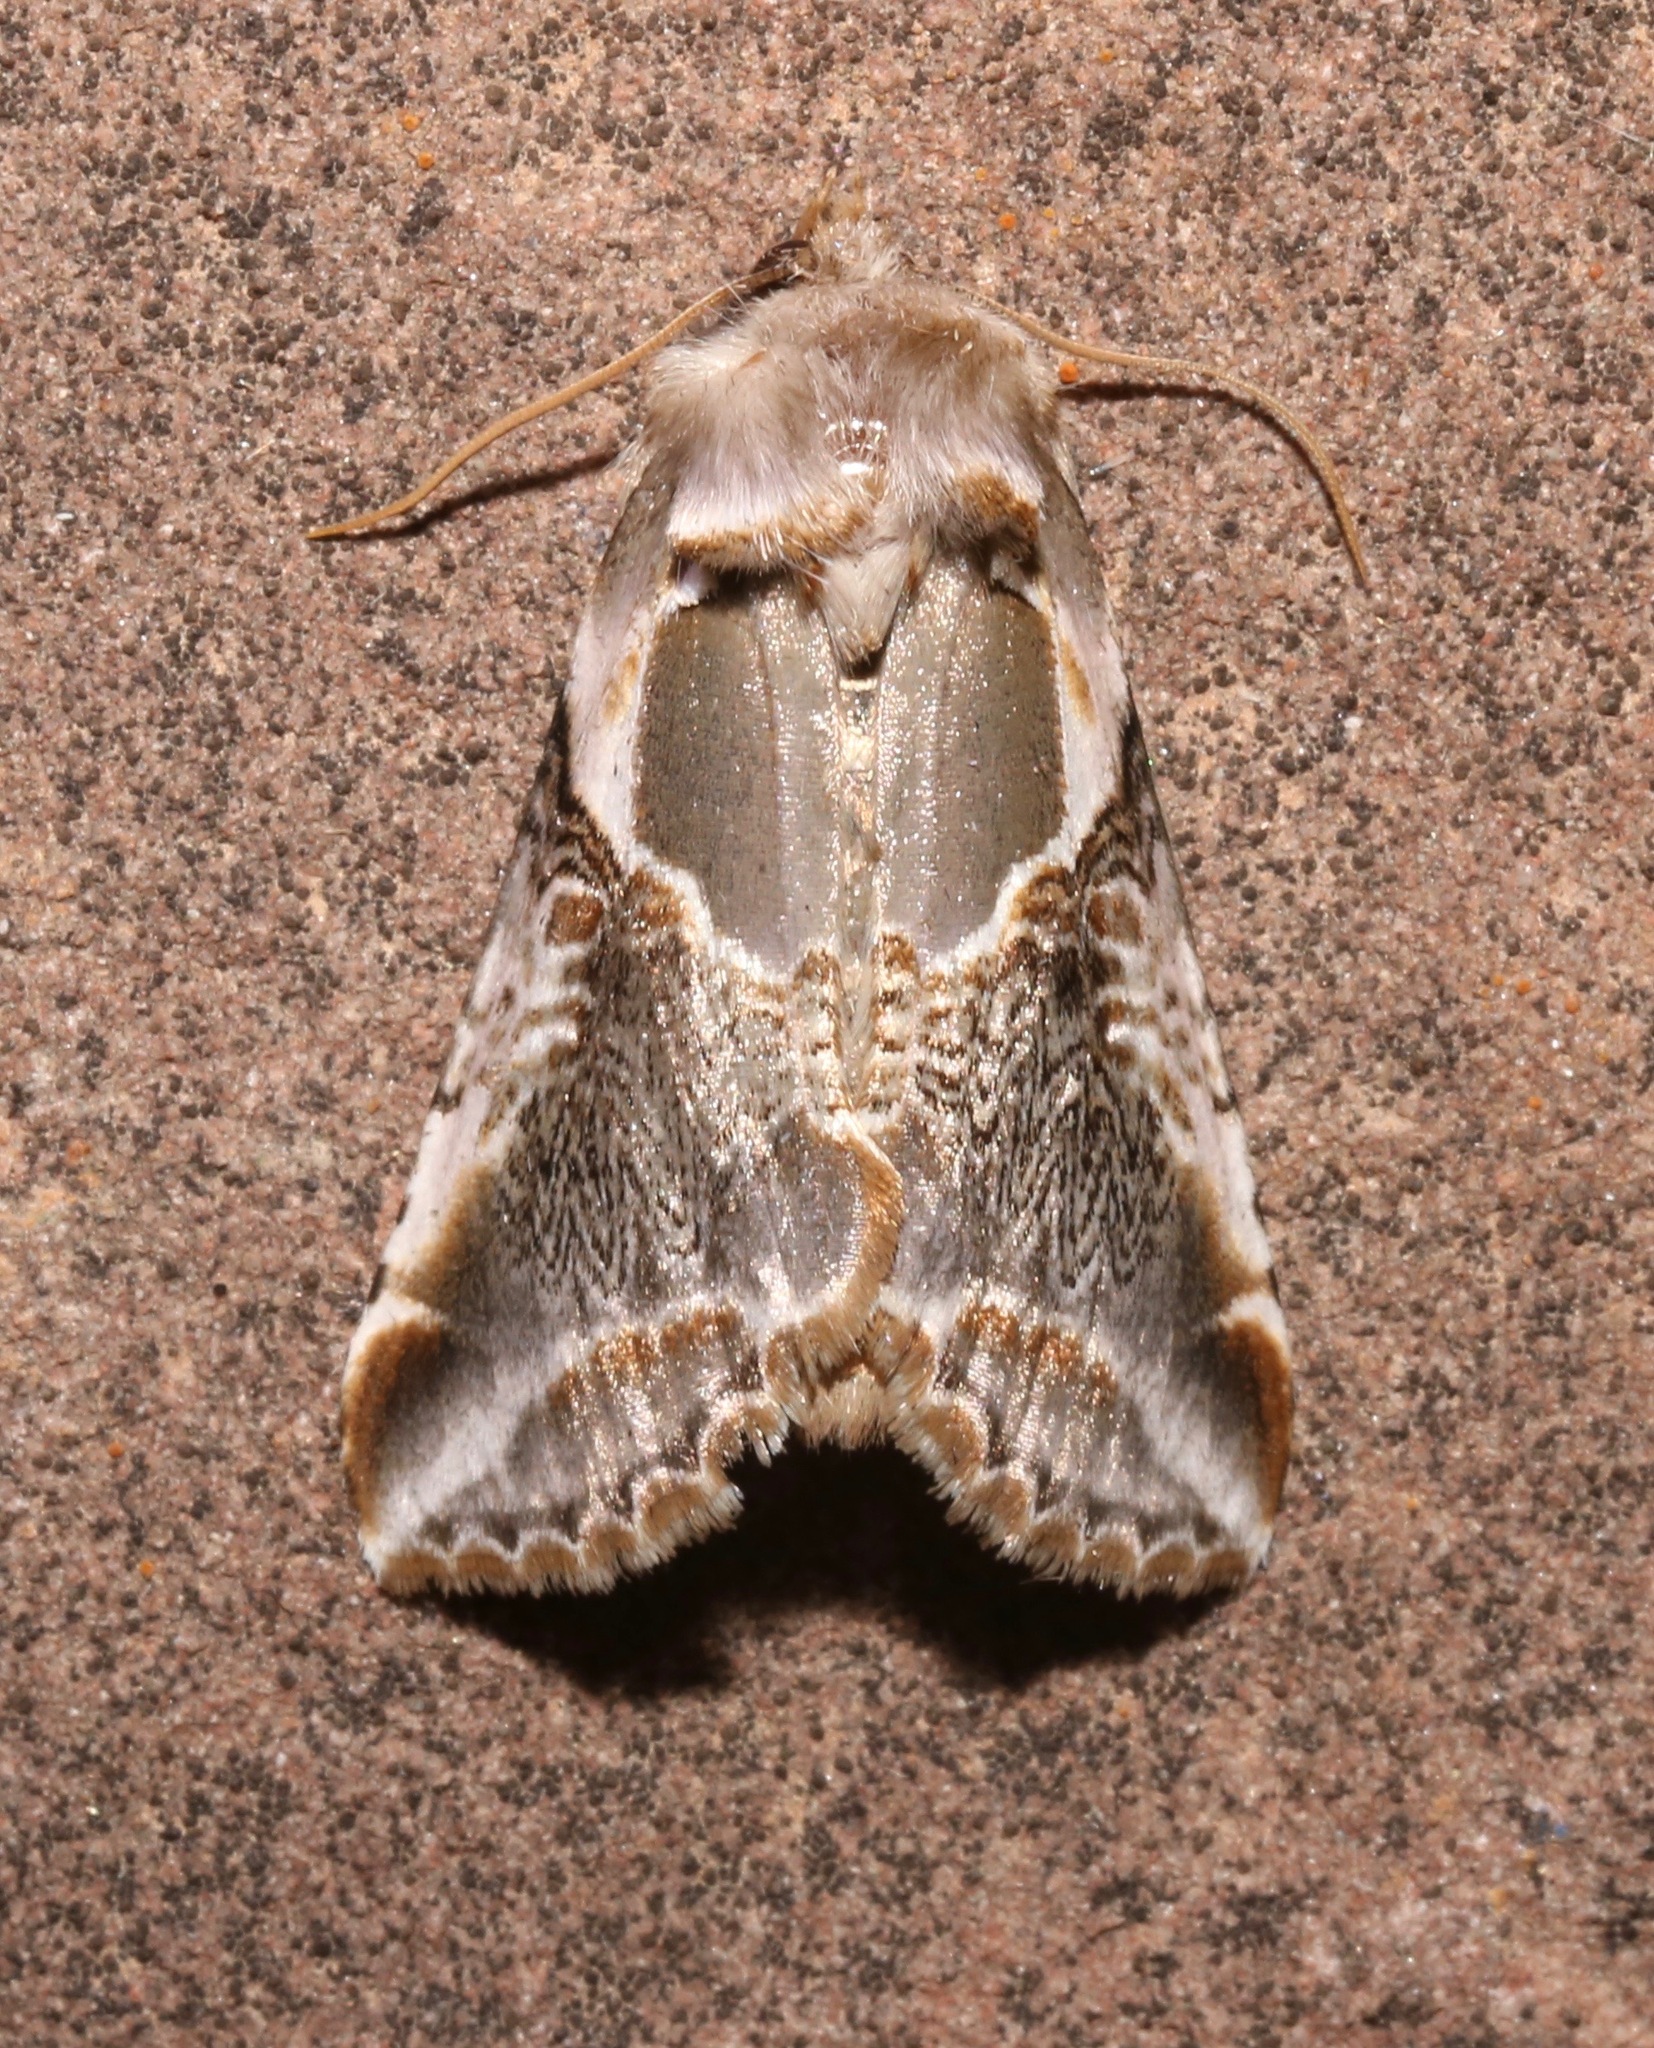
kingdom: Animalia
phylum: Arthropoda
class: Insecta
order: Lepidoptera
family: Drepanidae
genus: Habrosyne
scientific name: Habrosyne scripta
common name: Lettered habrosyne moth
